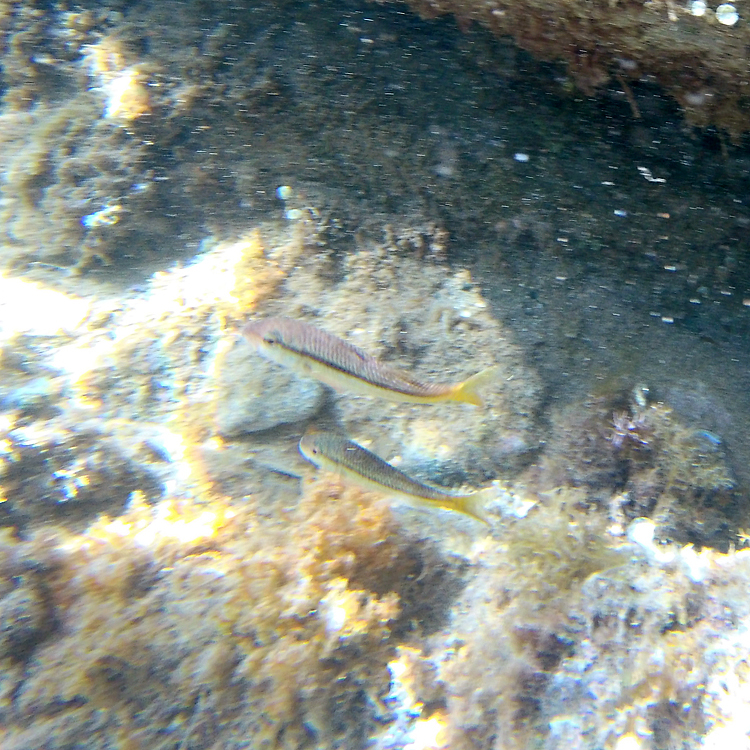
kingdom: Animalia
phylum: Chordata
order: Perciformes
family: Mullidae
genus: Mullus
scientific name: Mullus surmuletus
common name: Red mullet
